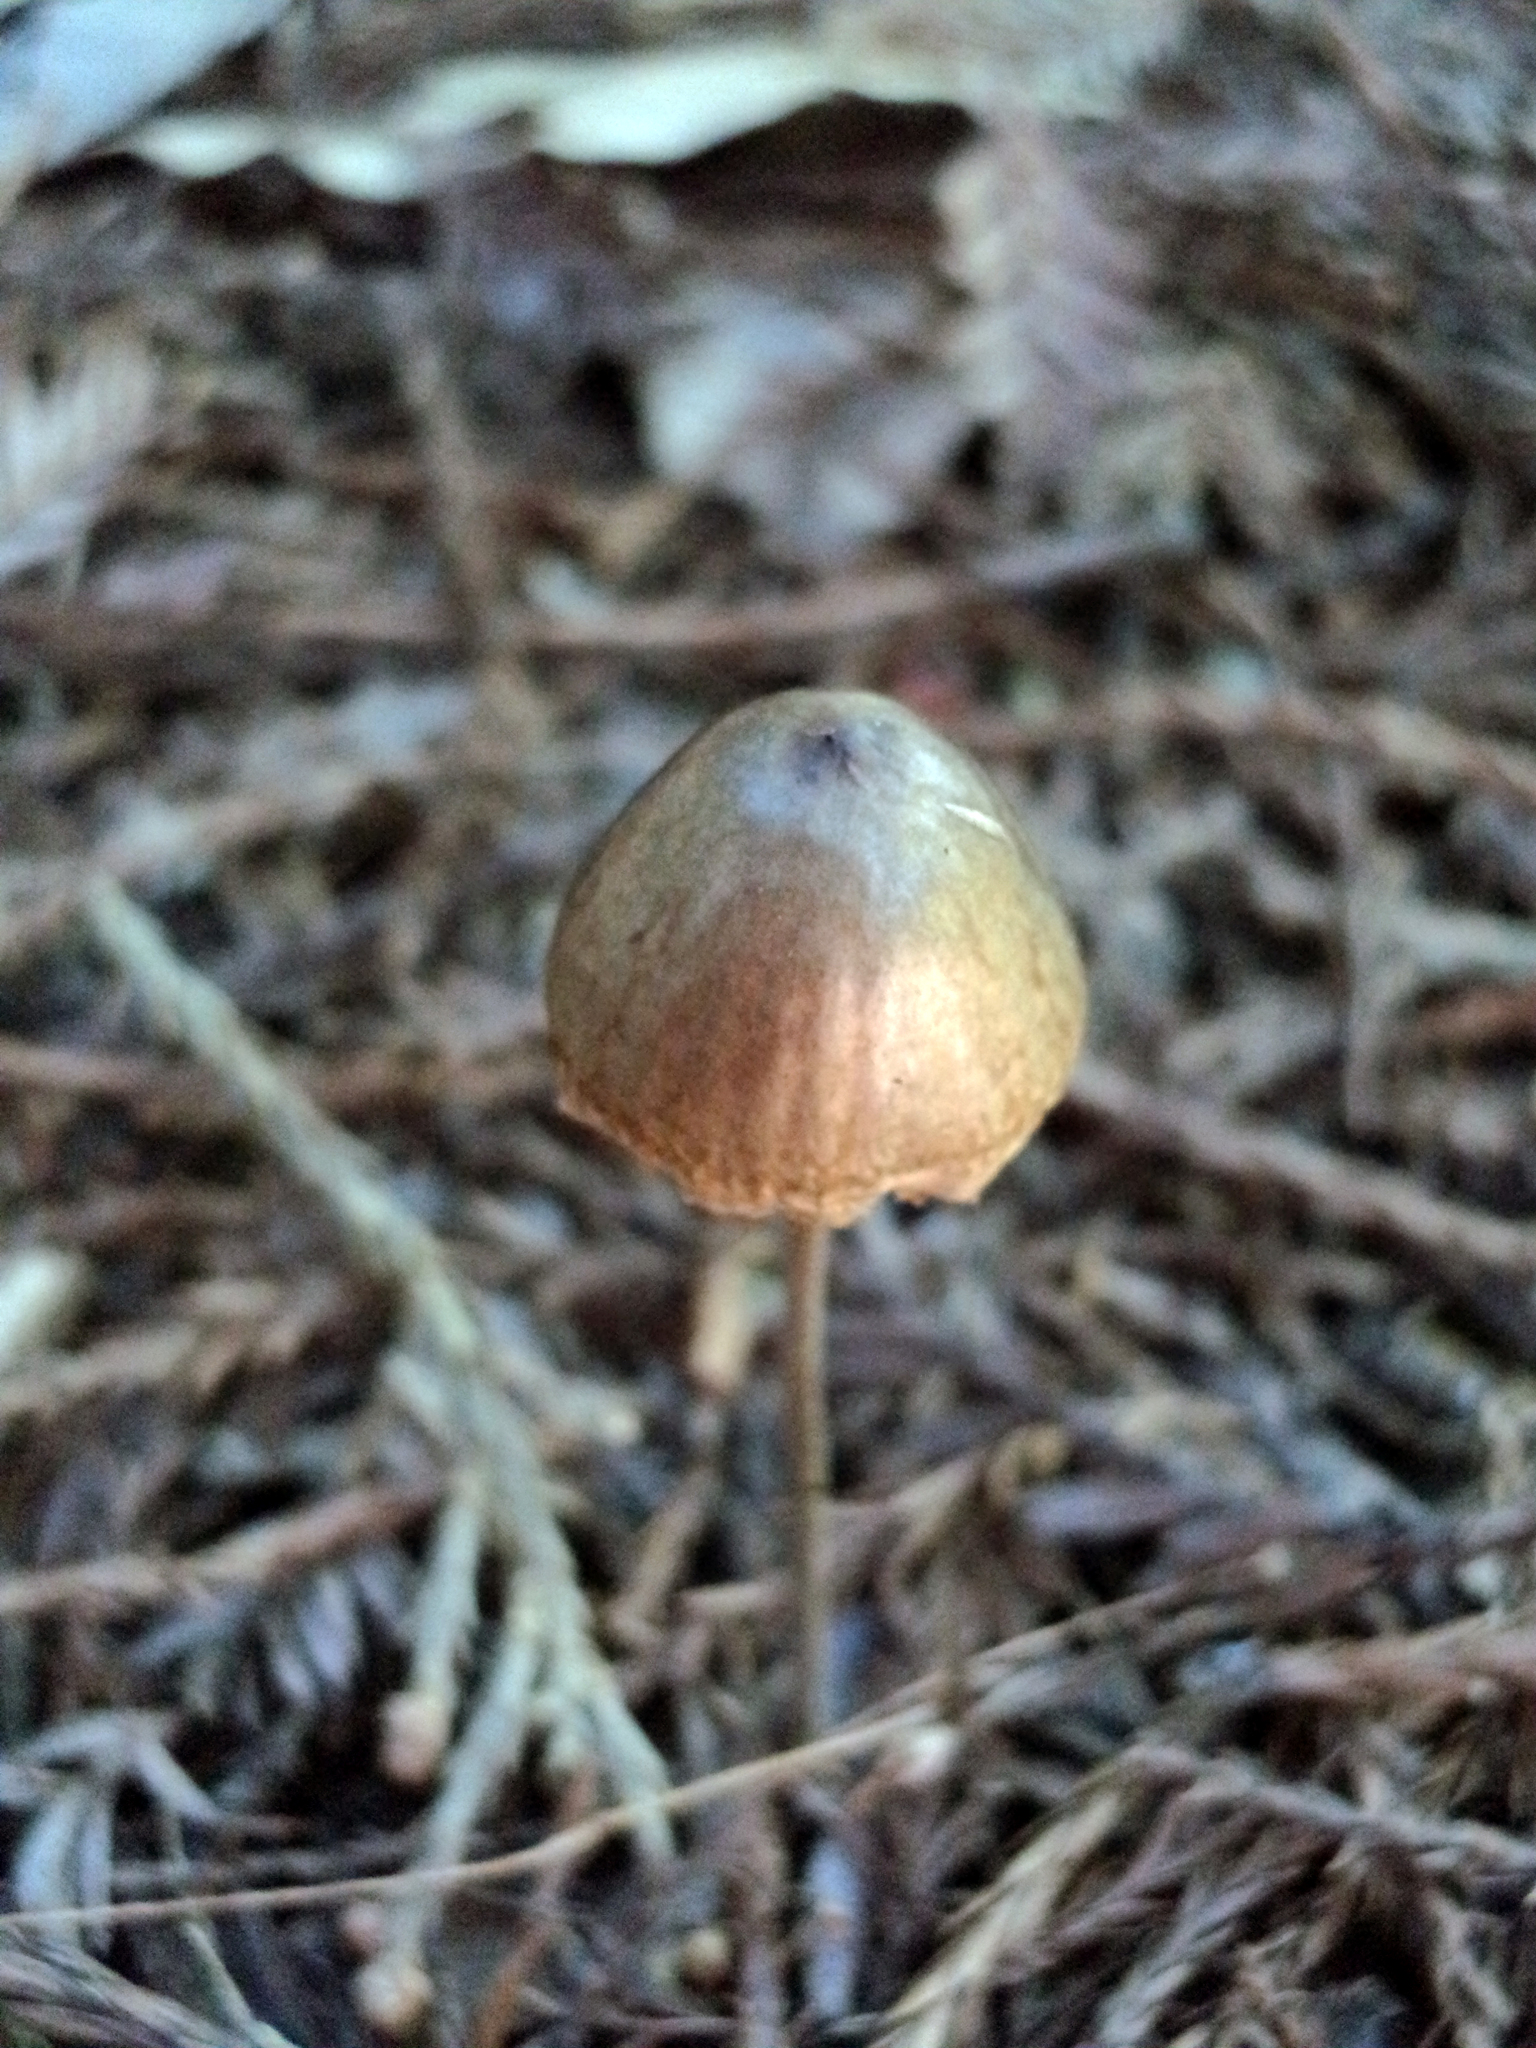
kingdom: Fungi
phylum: Basidiomycota
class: Agaricomycetes
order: Agaricales
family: Bolbitiaceae
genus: Panaeolus
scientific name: Panaeolus papilionaceus
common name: Petticoat mottlegill
